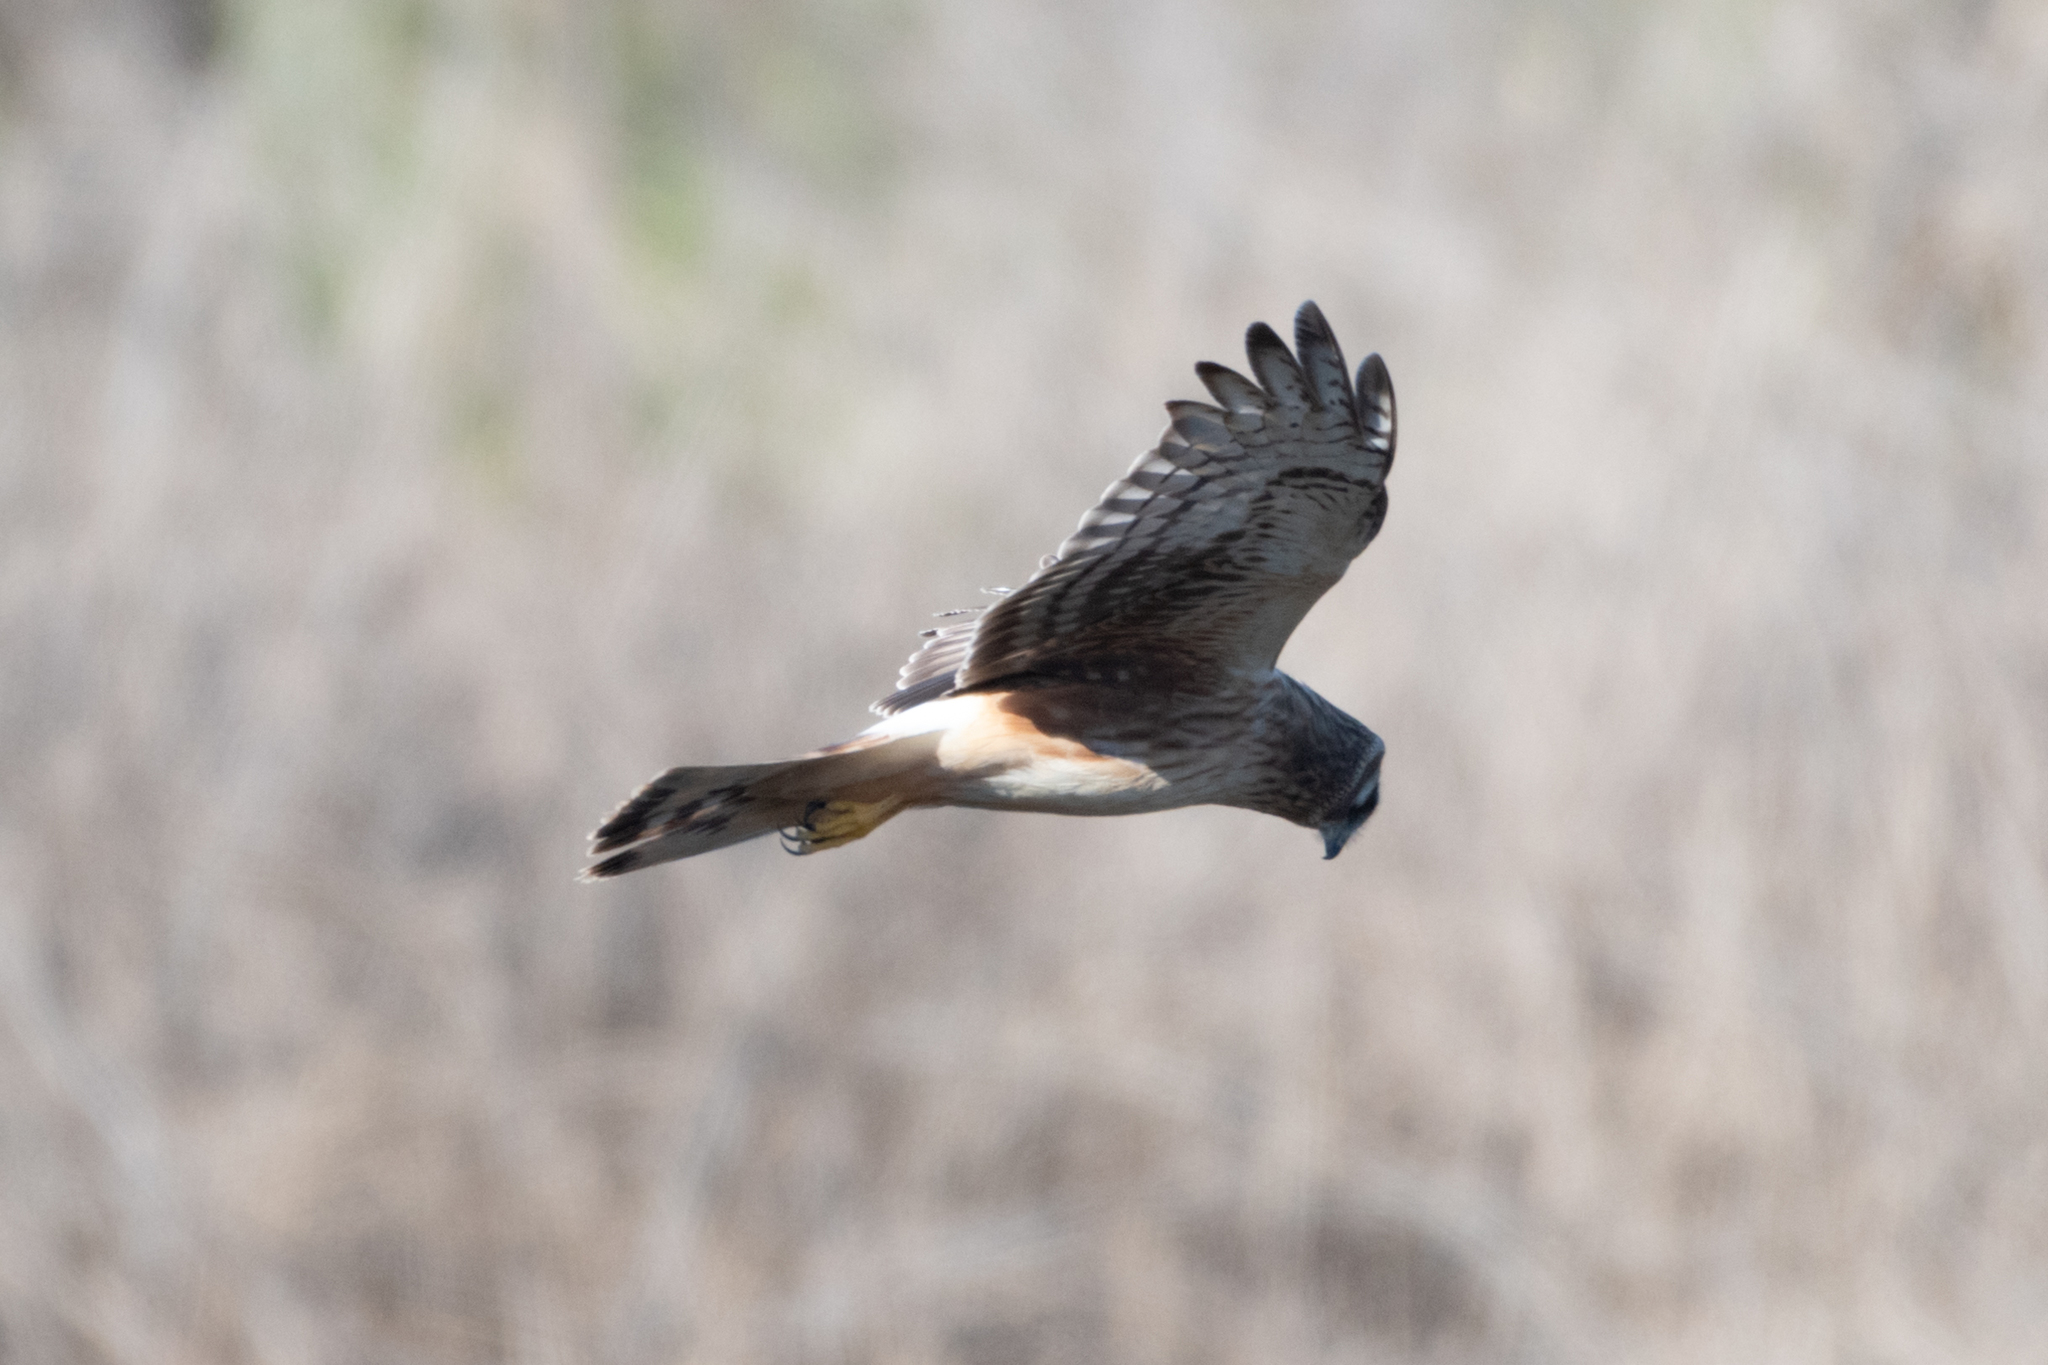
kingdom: Animalia
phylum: Chordata
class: Aves
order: Accipitriformes
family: Accipitridae
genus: Circus
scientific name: Circus cyaneus
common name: Hen harrier
